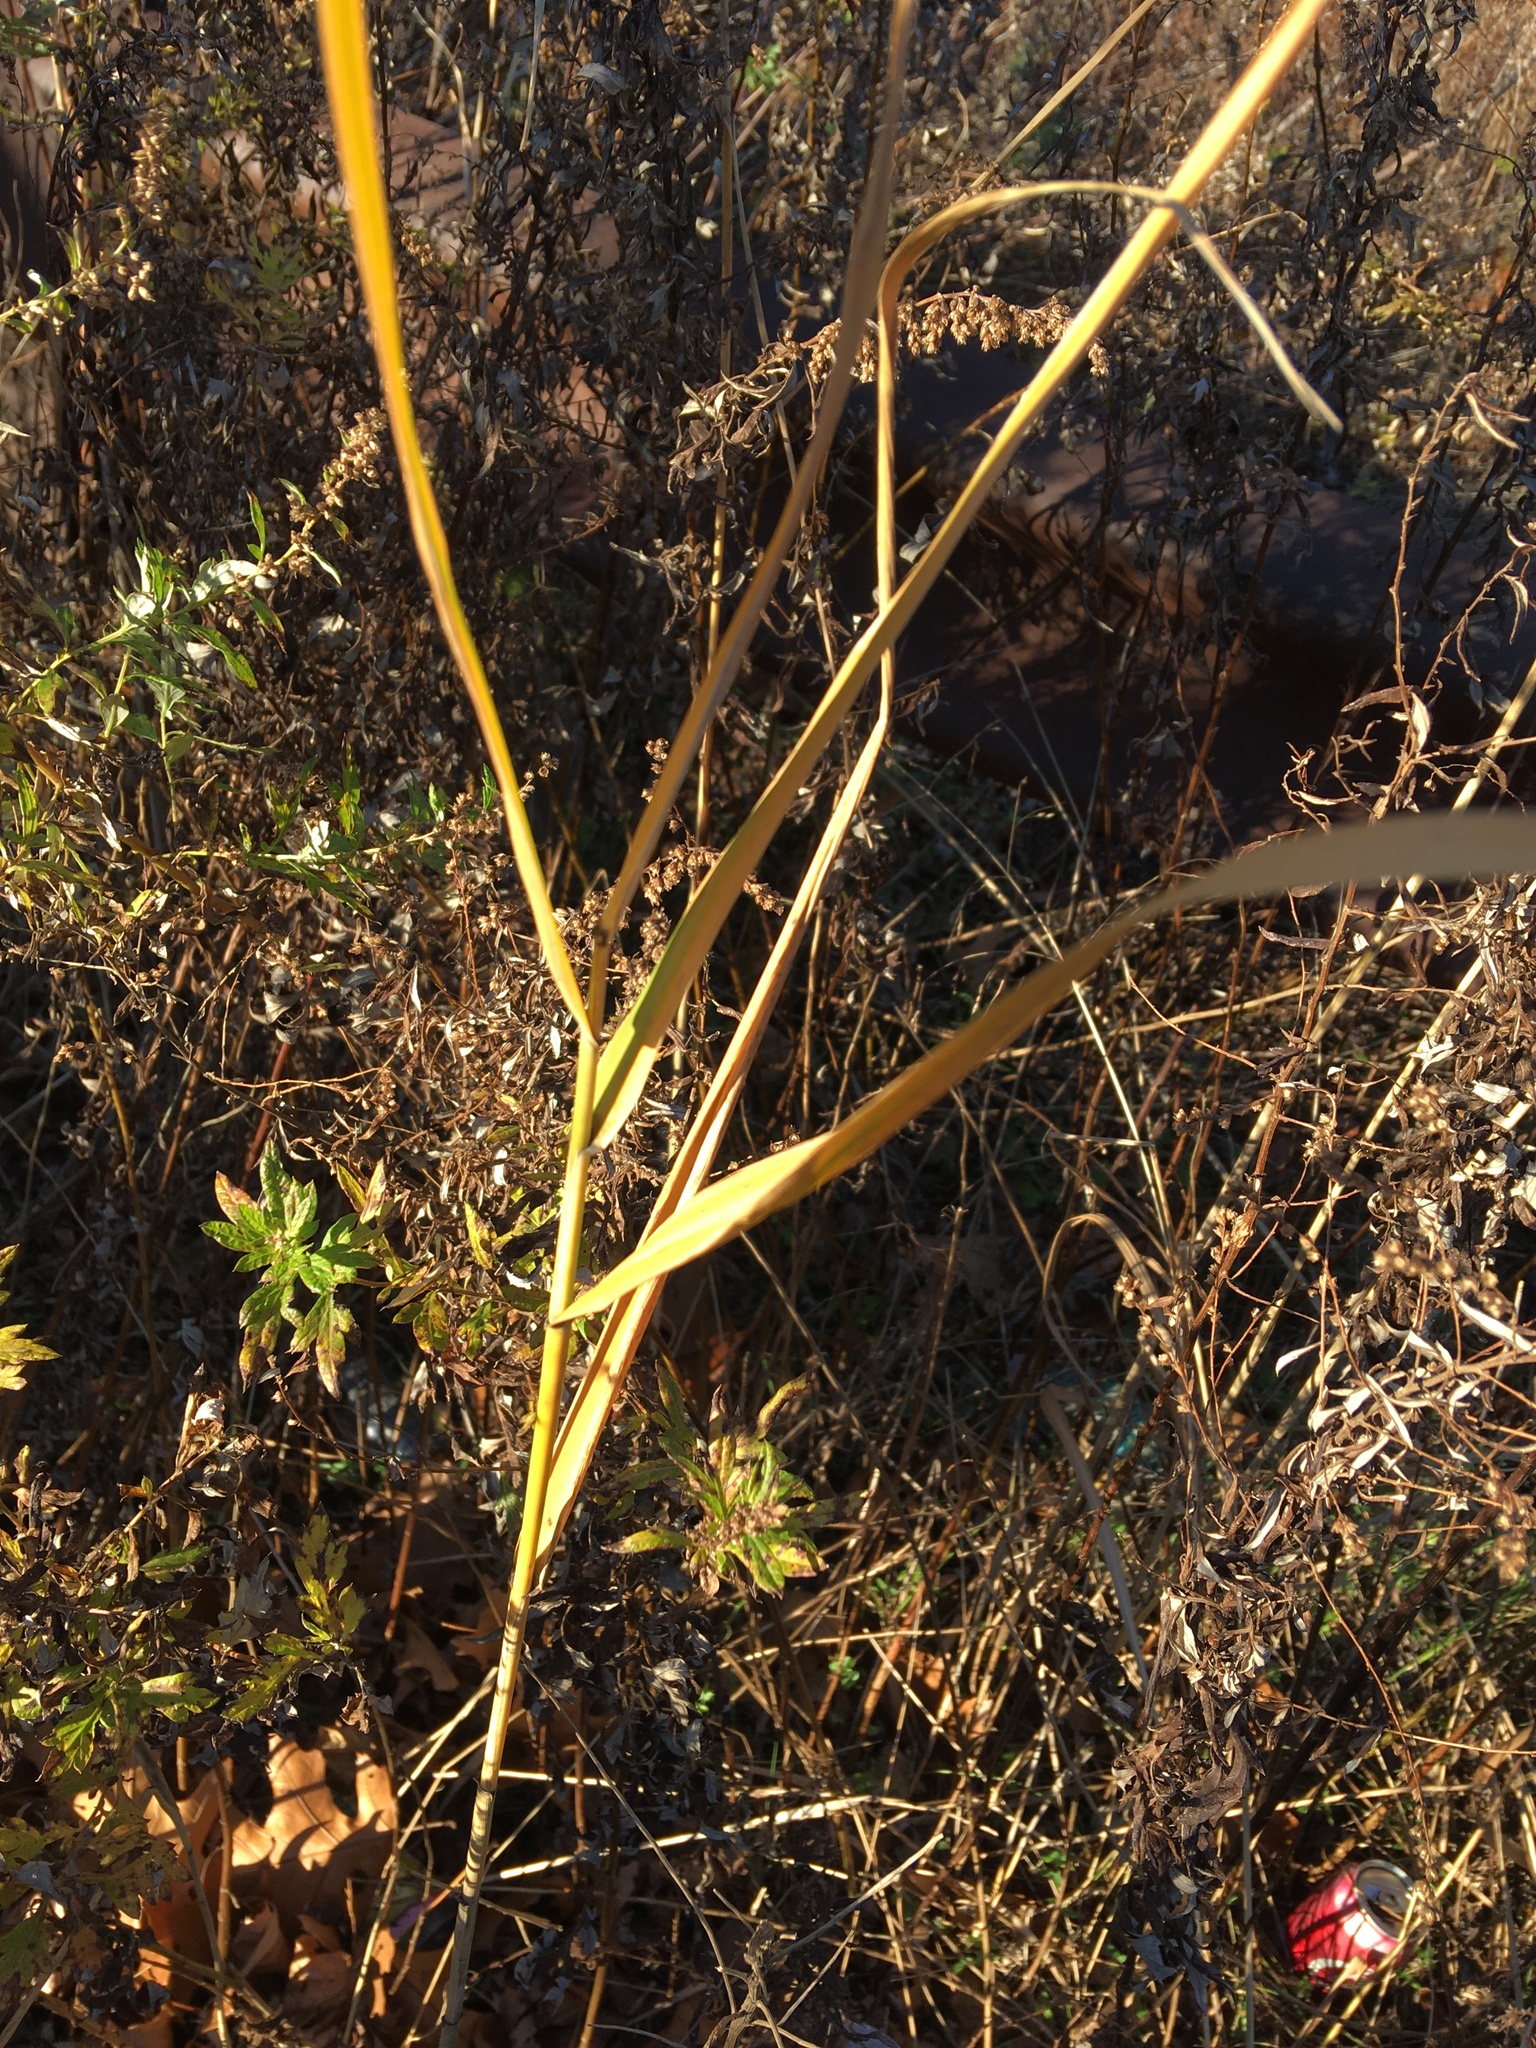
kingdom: Plantae
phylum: Tracheophyta
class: Liliopsida
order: Poales
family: Poaceae
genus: Phragmites
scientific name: Phragmites australis
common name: Common reed
